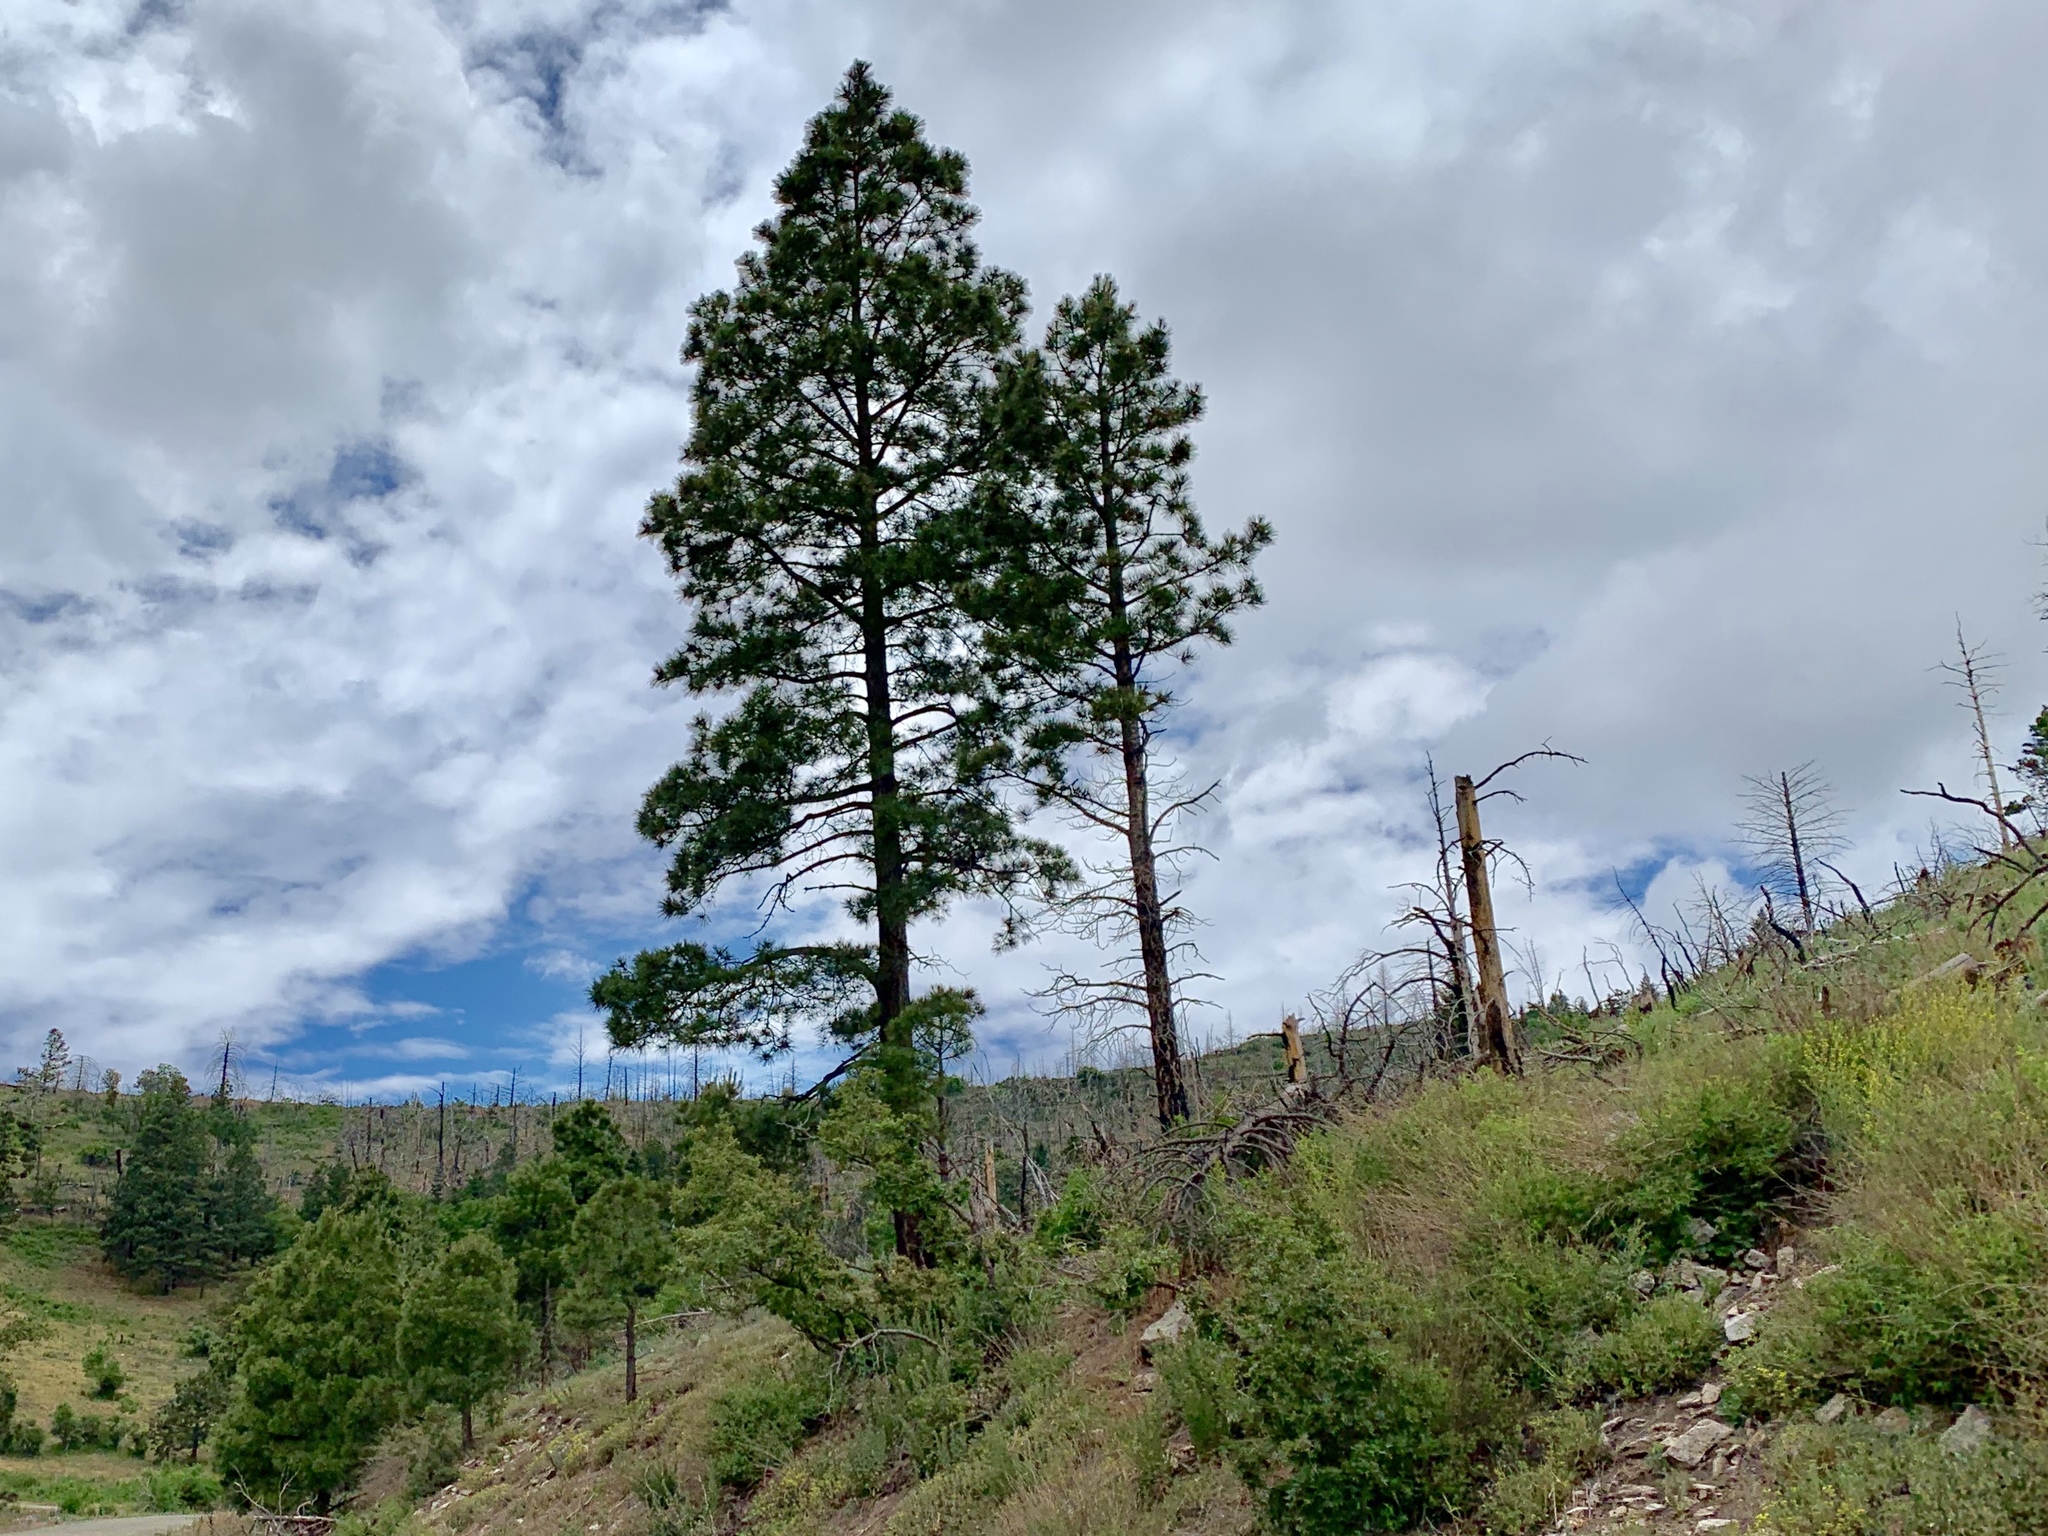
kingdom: Plantae
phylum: Tracheophyta
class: Pinopsida
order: Pinales
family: Pinaceae
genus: Pinus
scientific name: Pinus ponderosa
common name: Western yellow-pine
